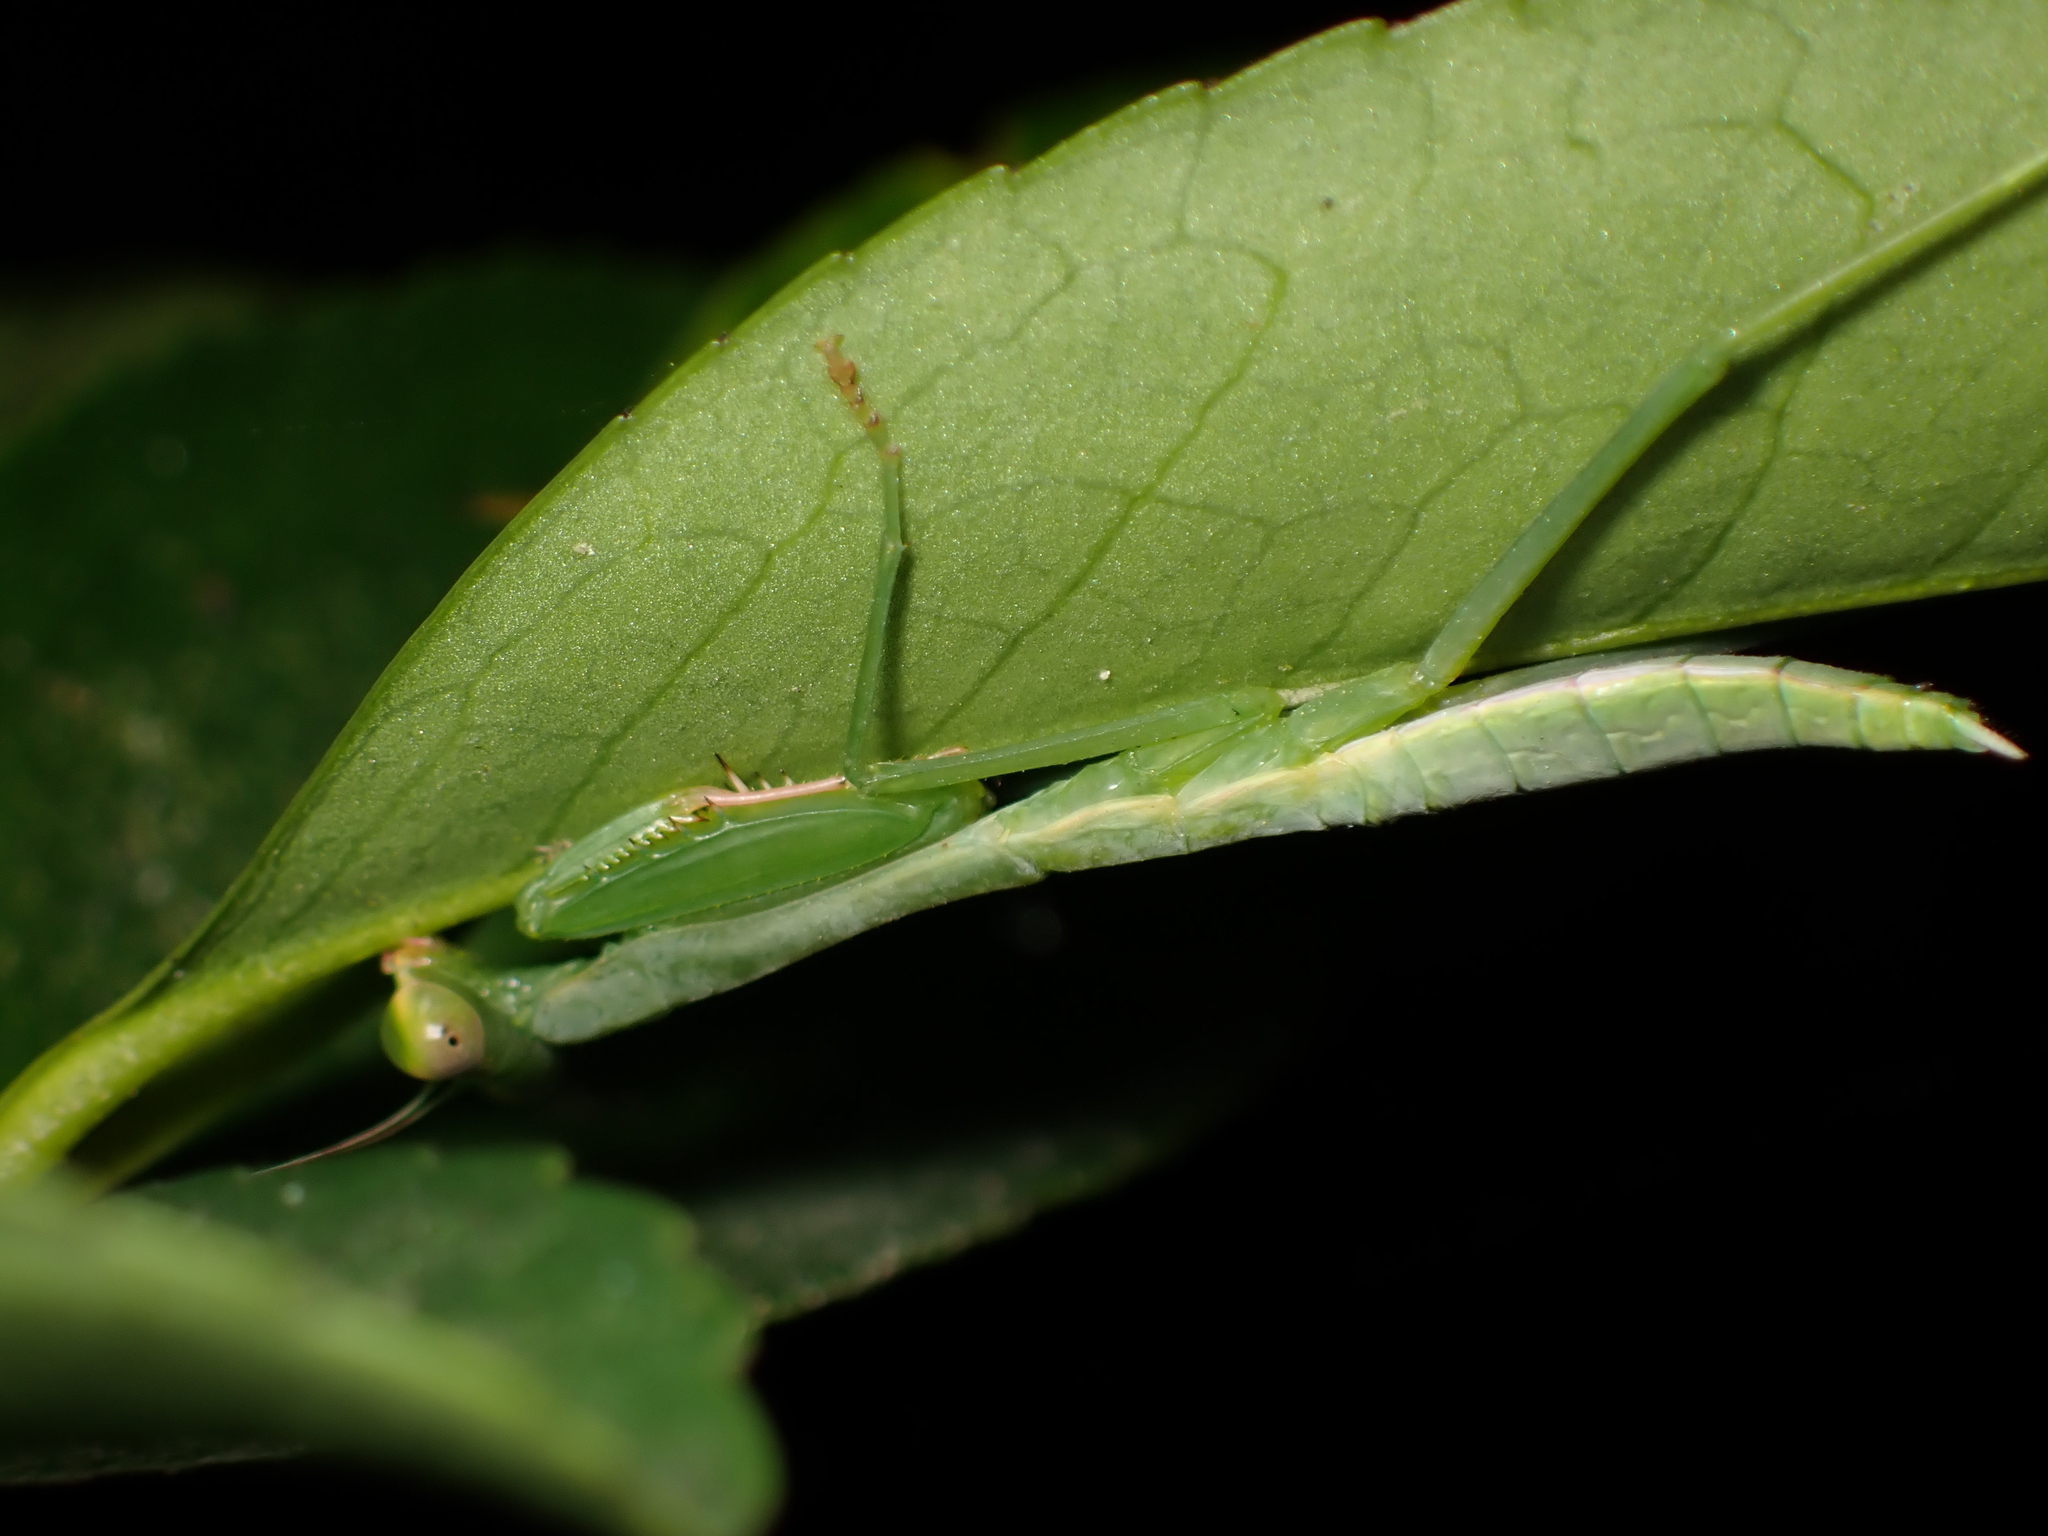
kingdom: Animalia
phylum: Arthropoda
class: Insecta
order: Mantodea
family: Mantidae
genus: Titanodula
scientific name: Titanodula formosana
